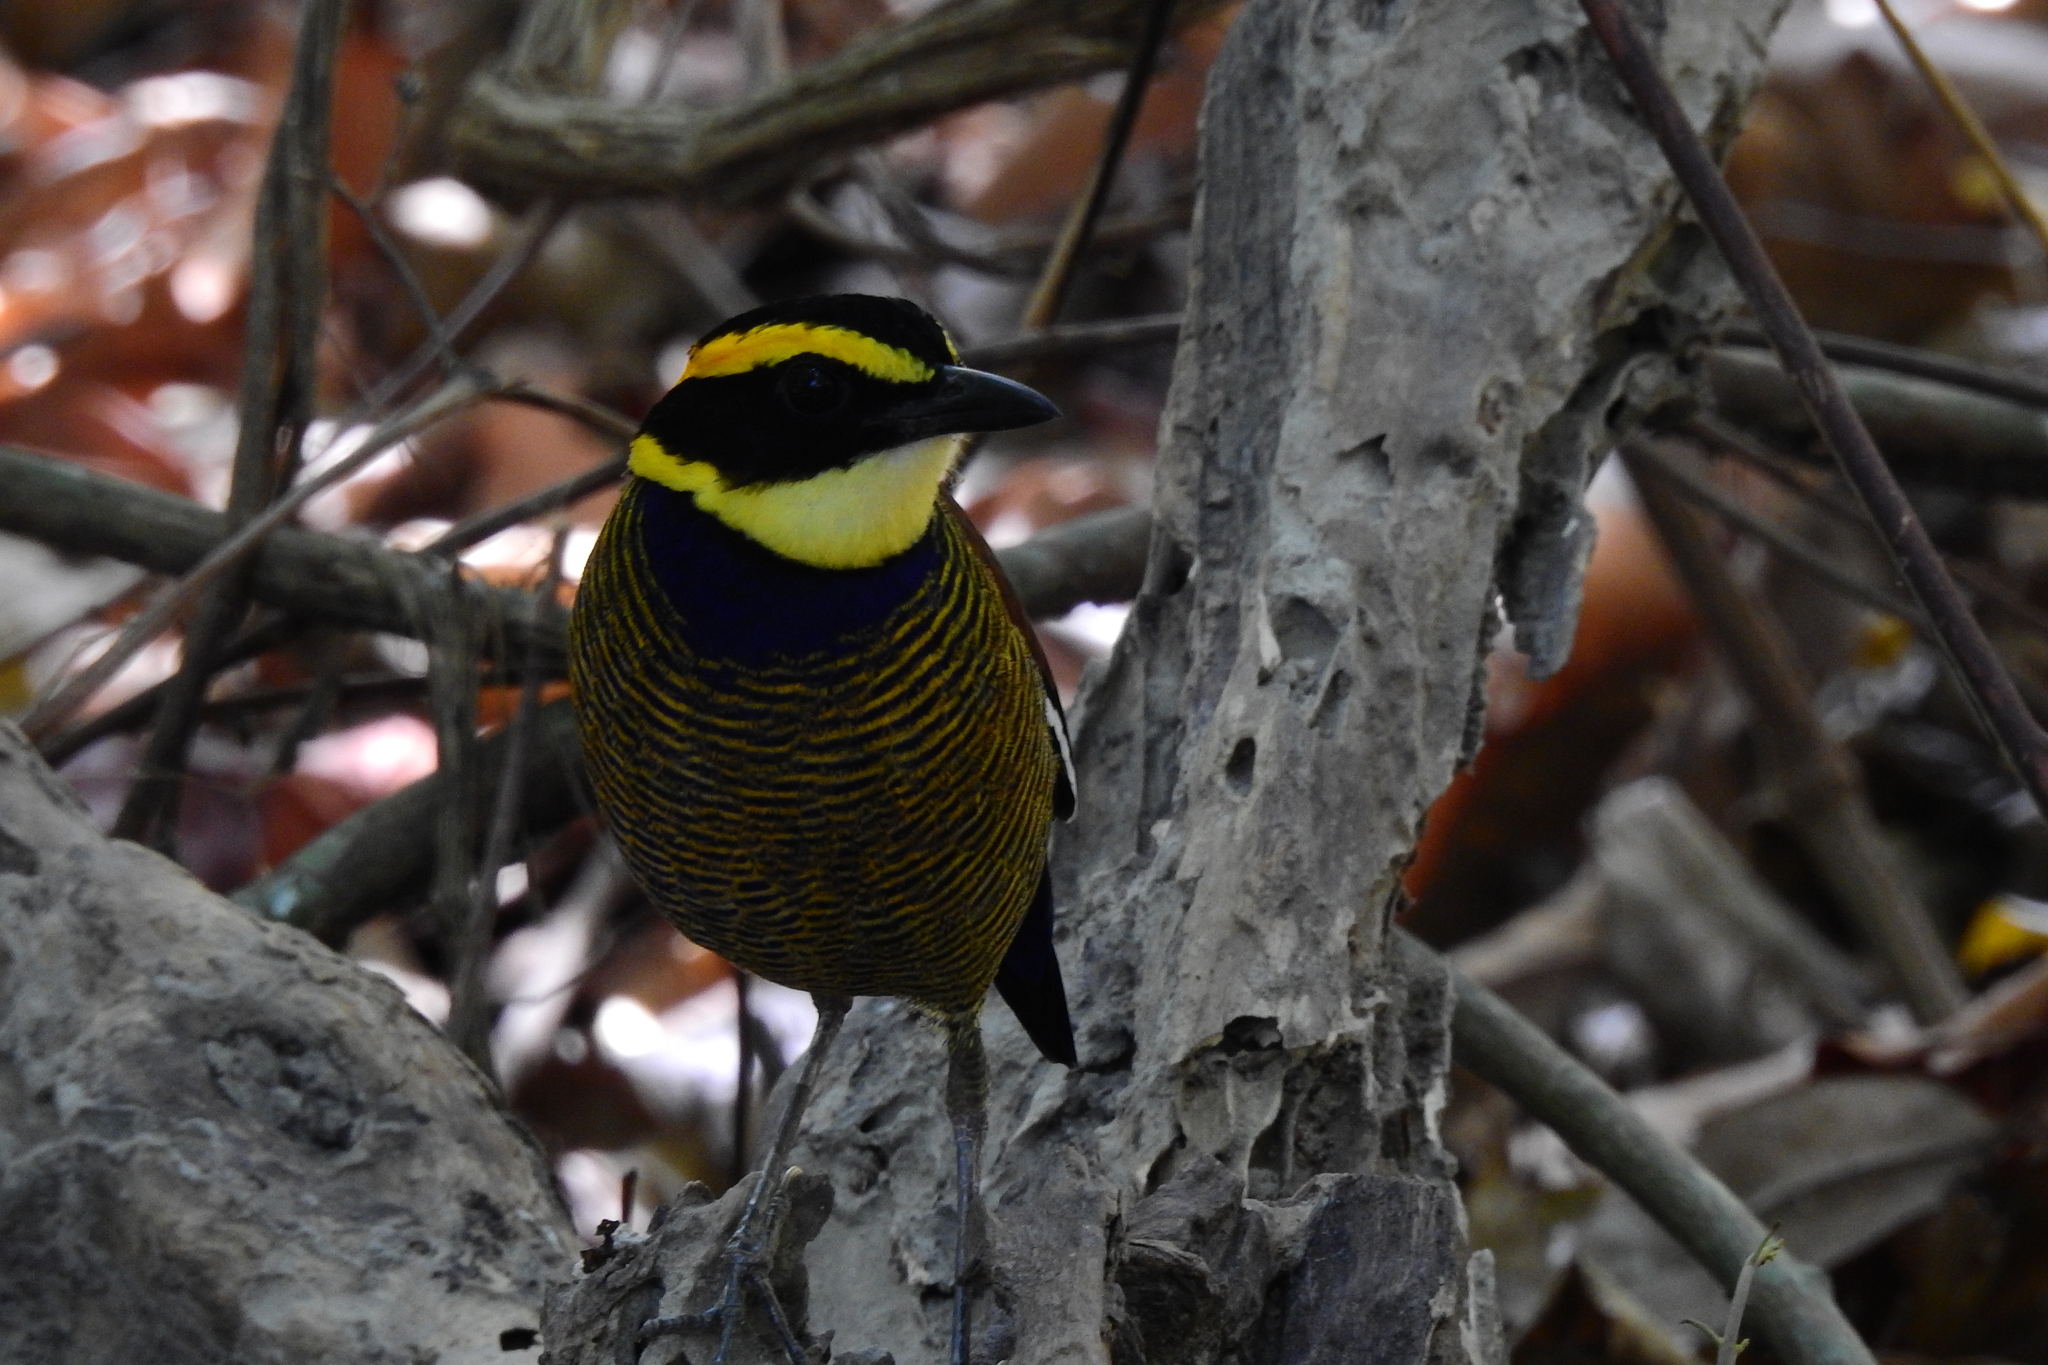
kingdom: Animalia
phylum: Chordata
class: Aves
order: Passeriformes
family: Pittidae
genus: Pitta
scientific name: Pitta guajana
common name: Banded pitta
